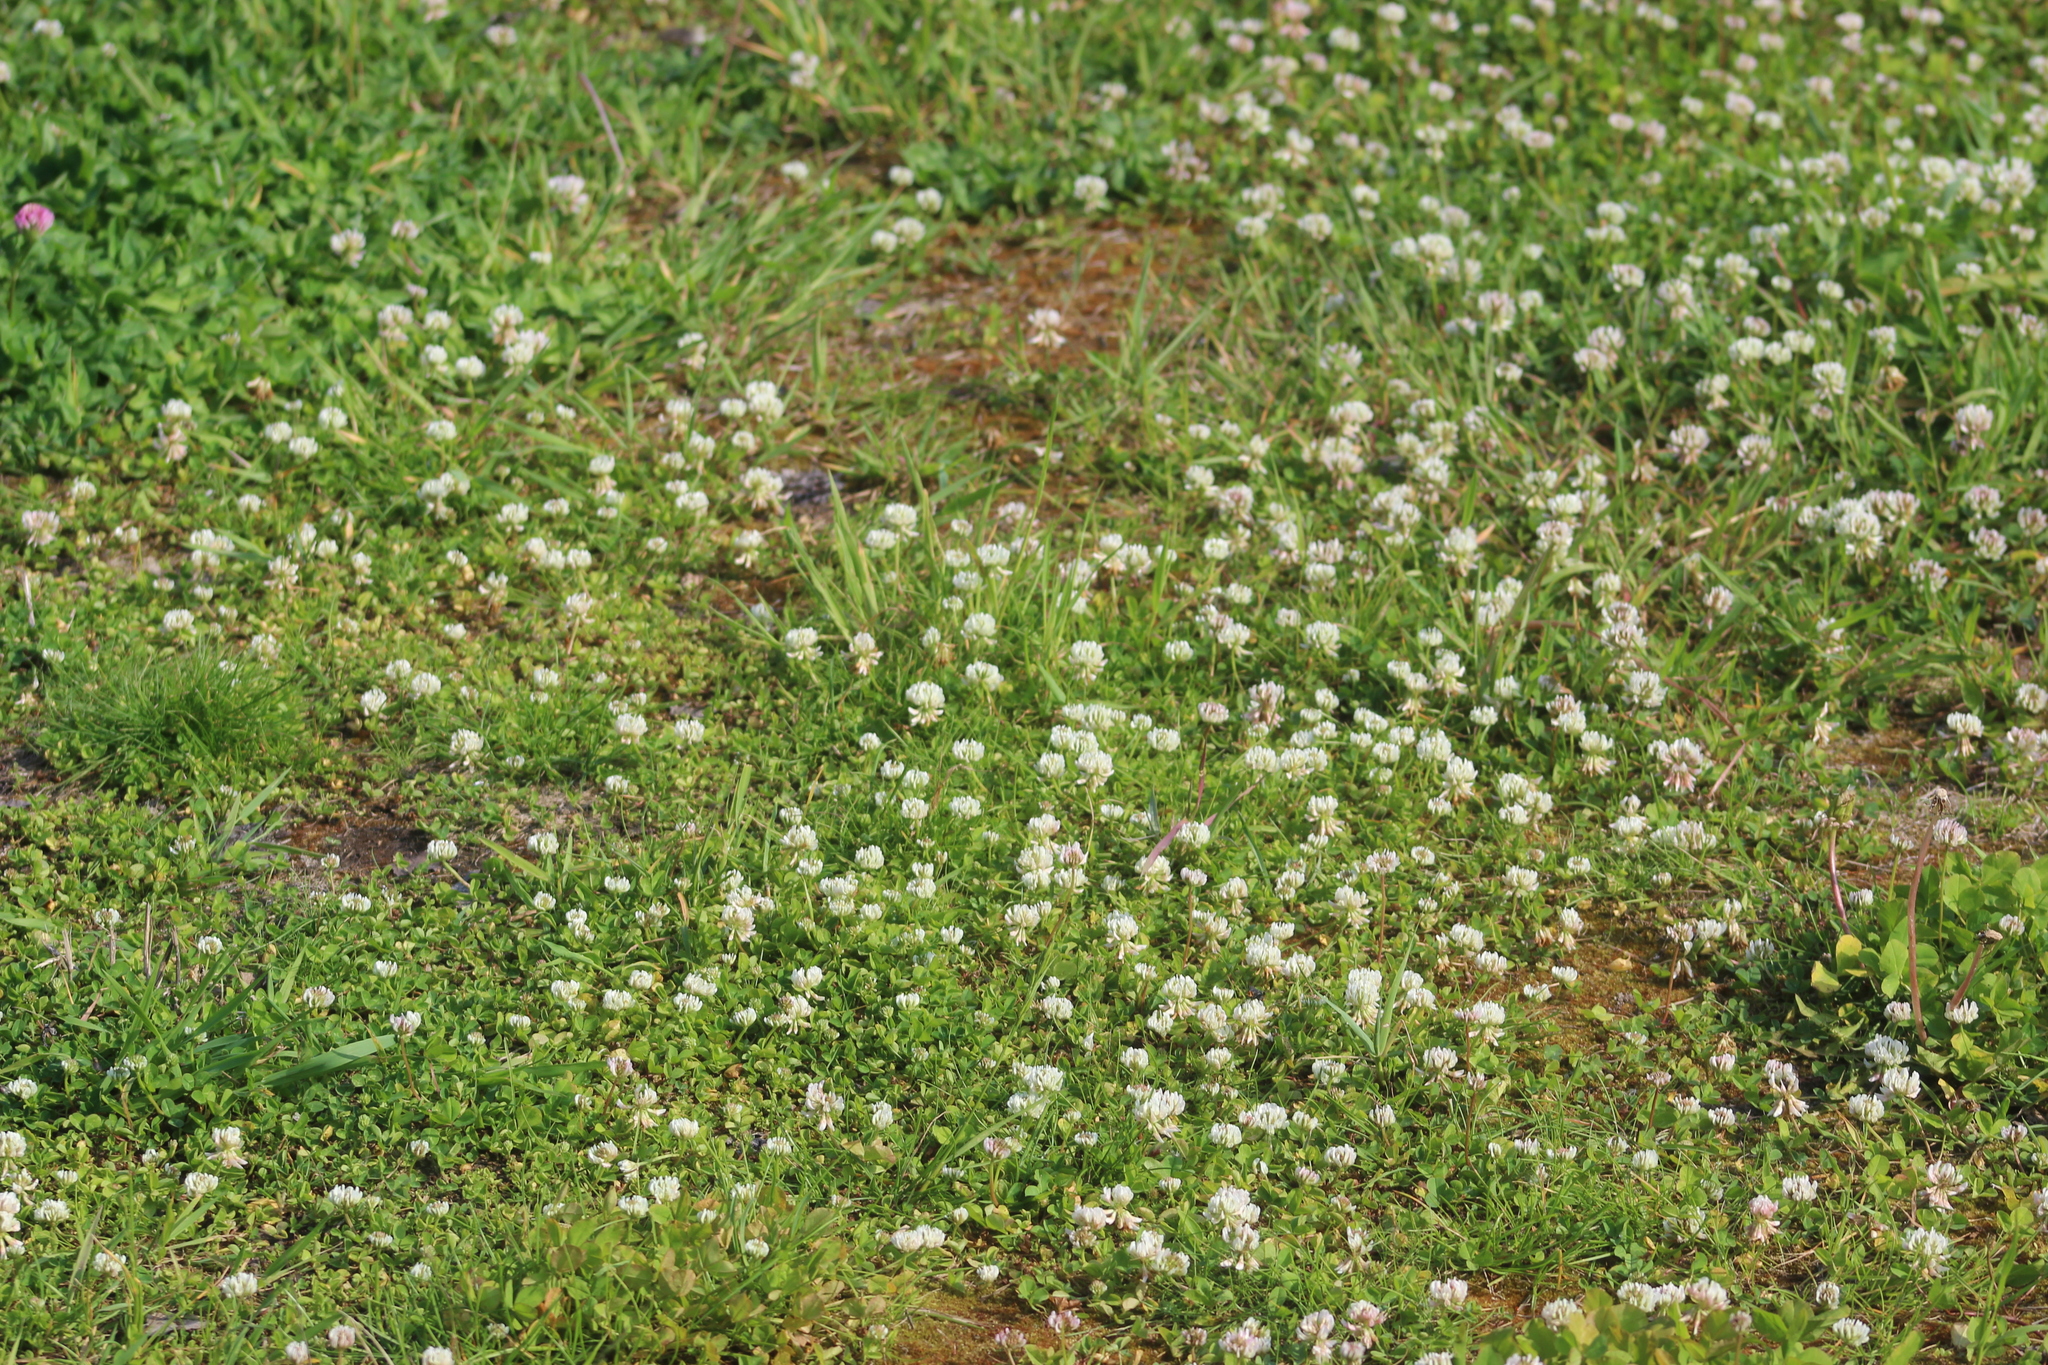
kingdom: Plantae
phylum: Tracheophyta
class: Magnoliopsida
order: Fabales
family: Fabaceae
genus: Trifolium
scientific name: Trifolium repens
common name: White clover
